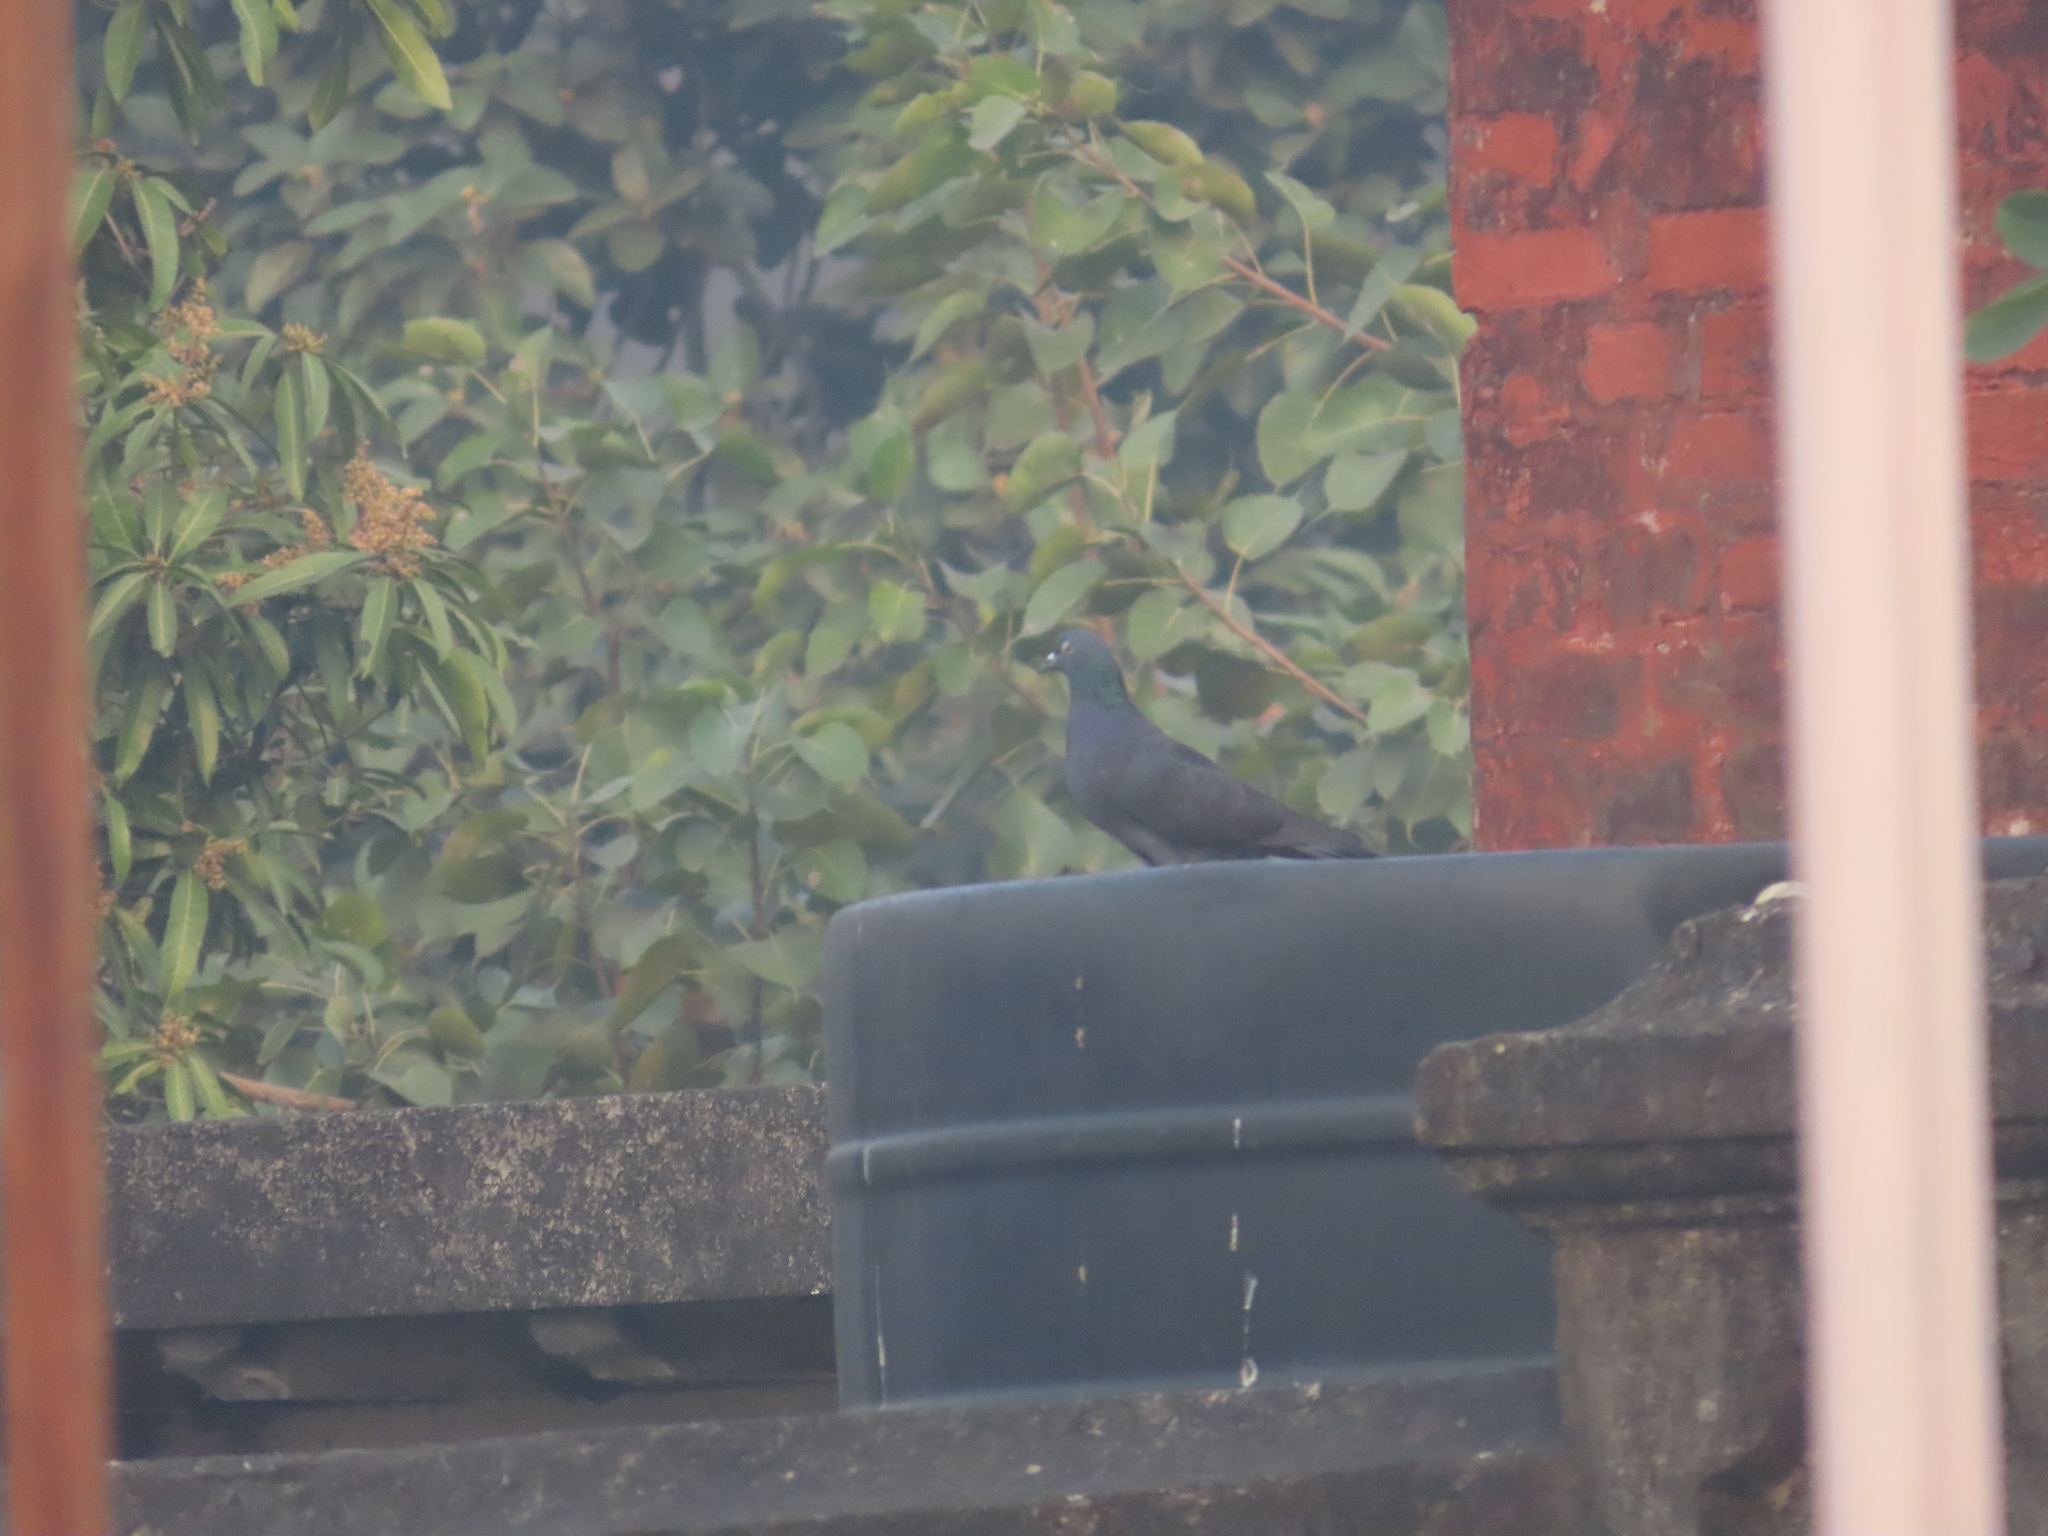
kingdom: Animalia
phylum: Chordata
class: Aves
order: Columbiformes
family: Columbidae
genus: Columba
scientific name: Columba livia
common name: Rock pigeon
